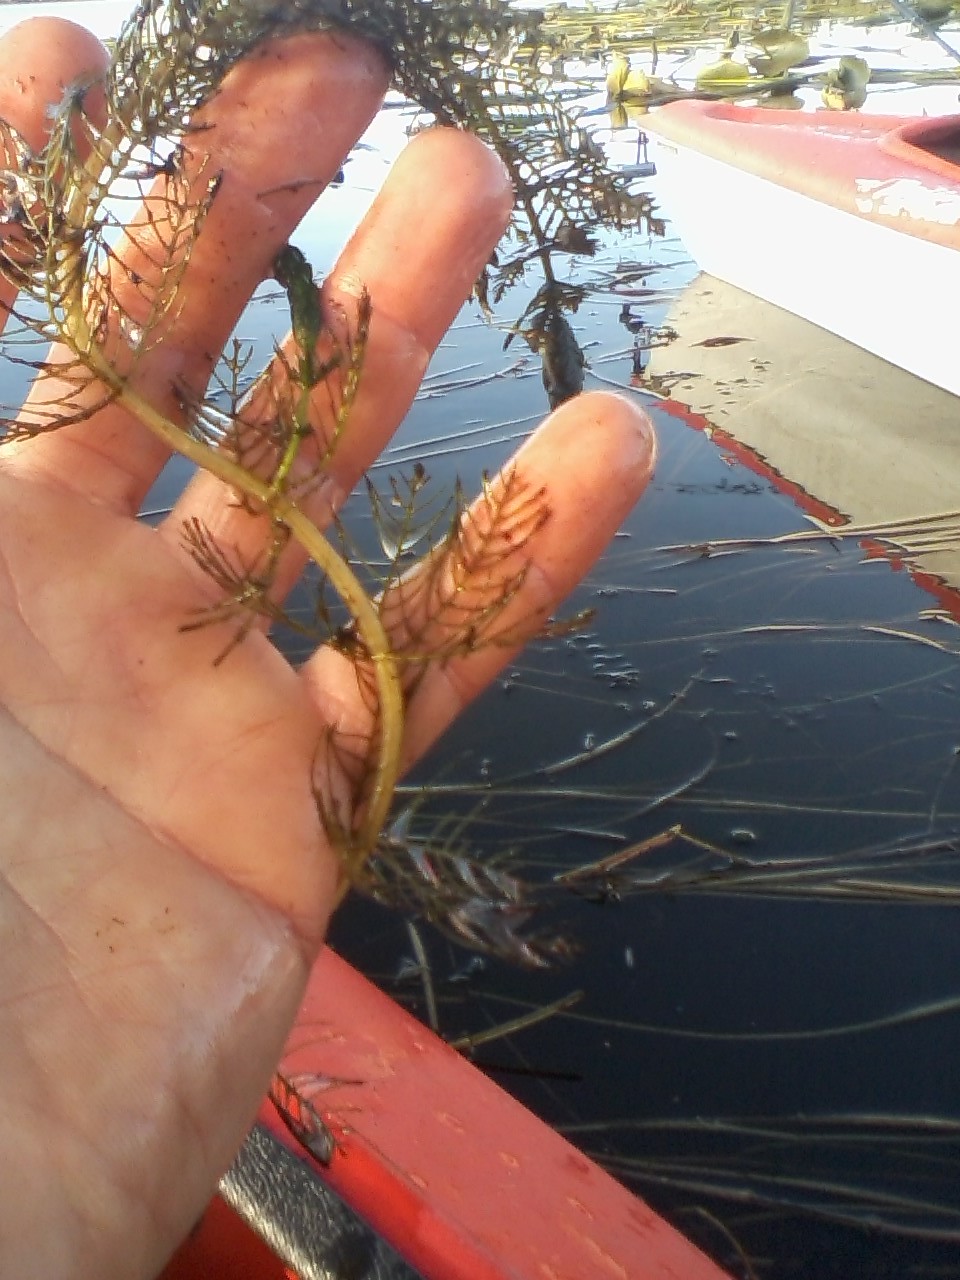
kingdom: Plantae
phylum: Tracheophyta
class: Magnoliopsida
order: Saxifragales
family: Haloragaceae
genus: Myriophyllum
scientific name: Myriophyllum sibiricum
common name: Siberian water-milfoil
